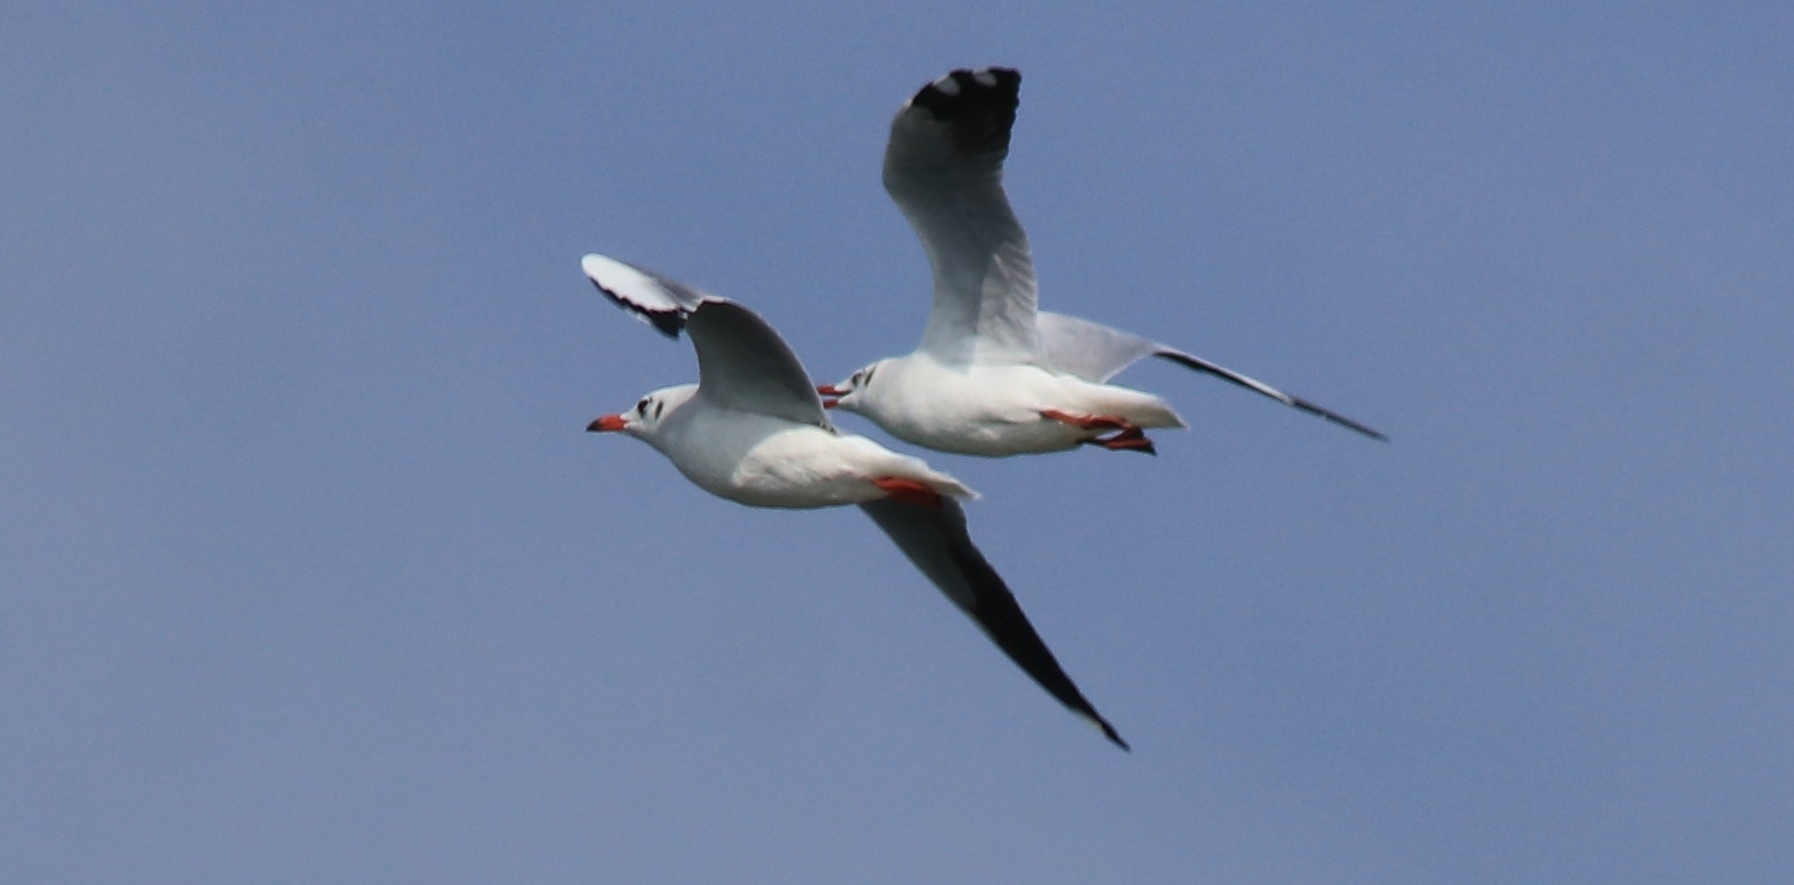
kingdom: Animalia
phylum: Chordata
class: Aves
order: Charadriiformes
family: Laridae
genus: Chroicocephalus
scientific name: Chroicocephalus brunnicephalus
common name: Brown-headed gull
